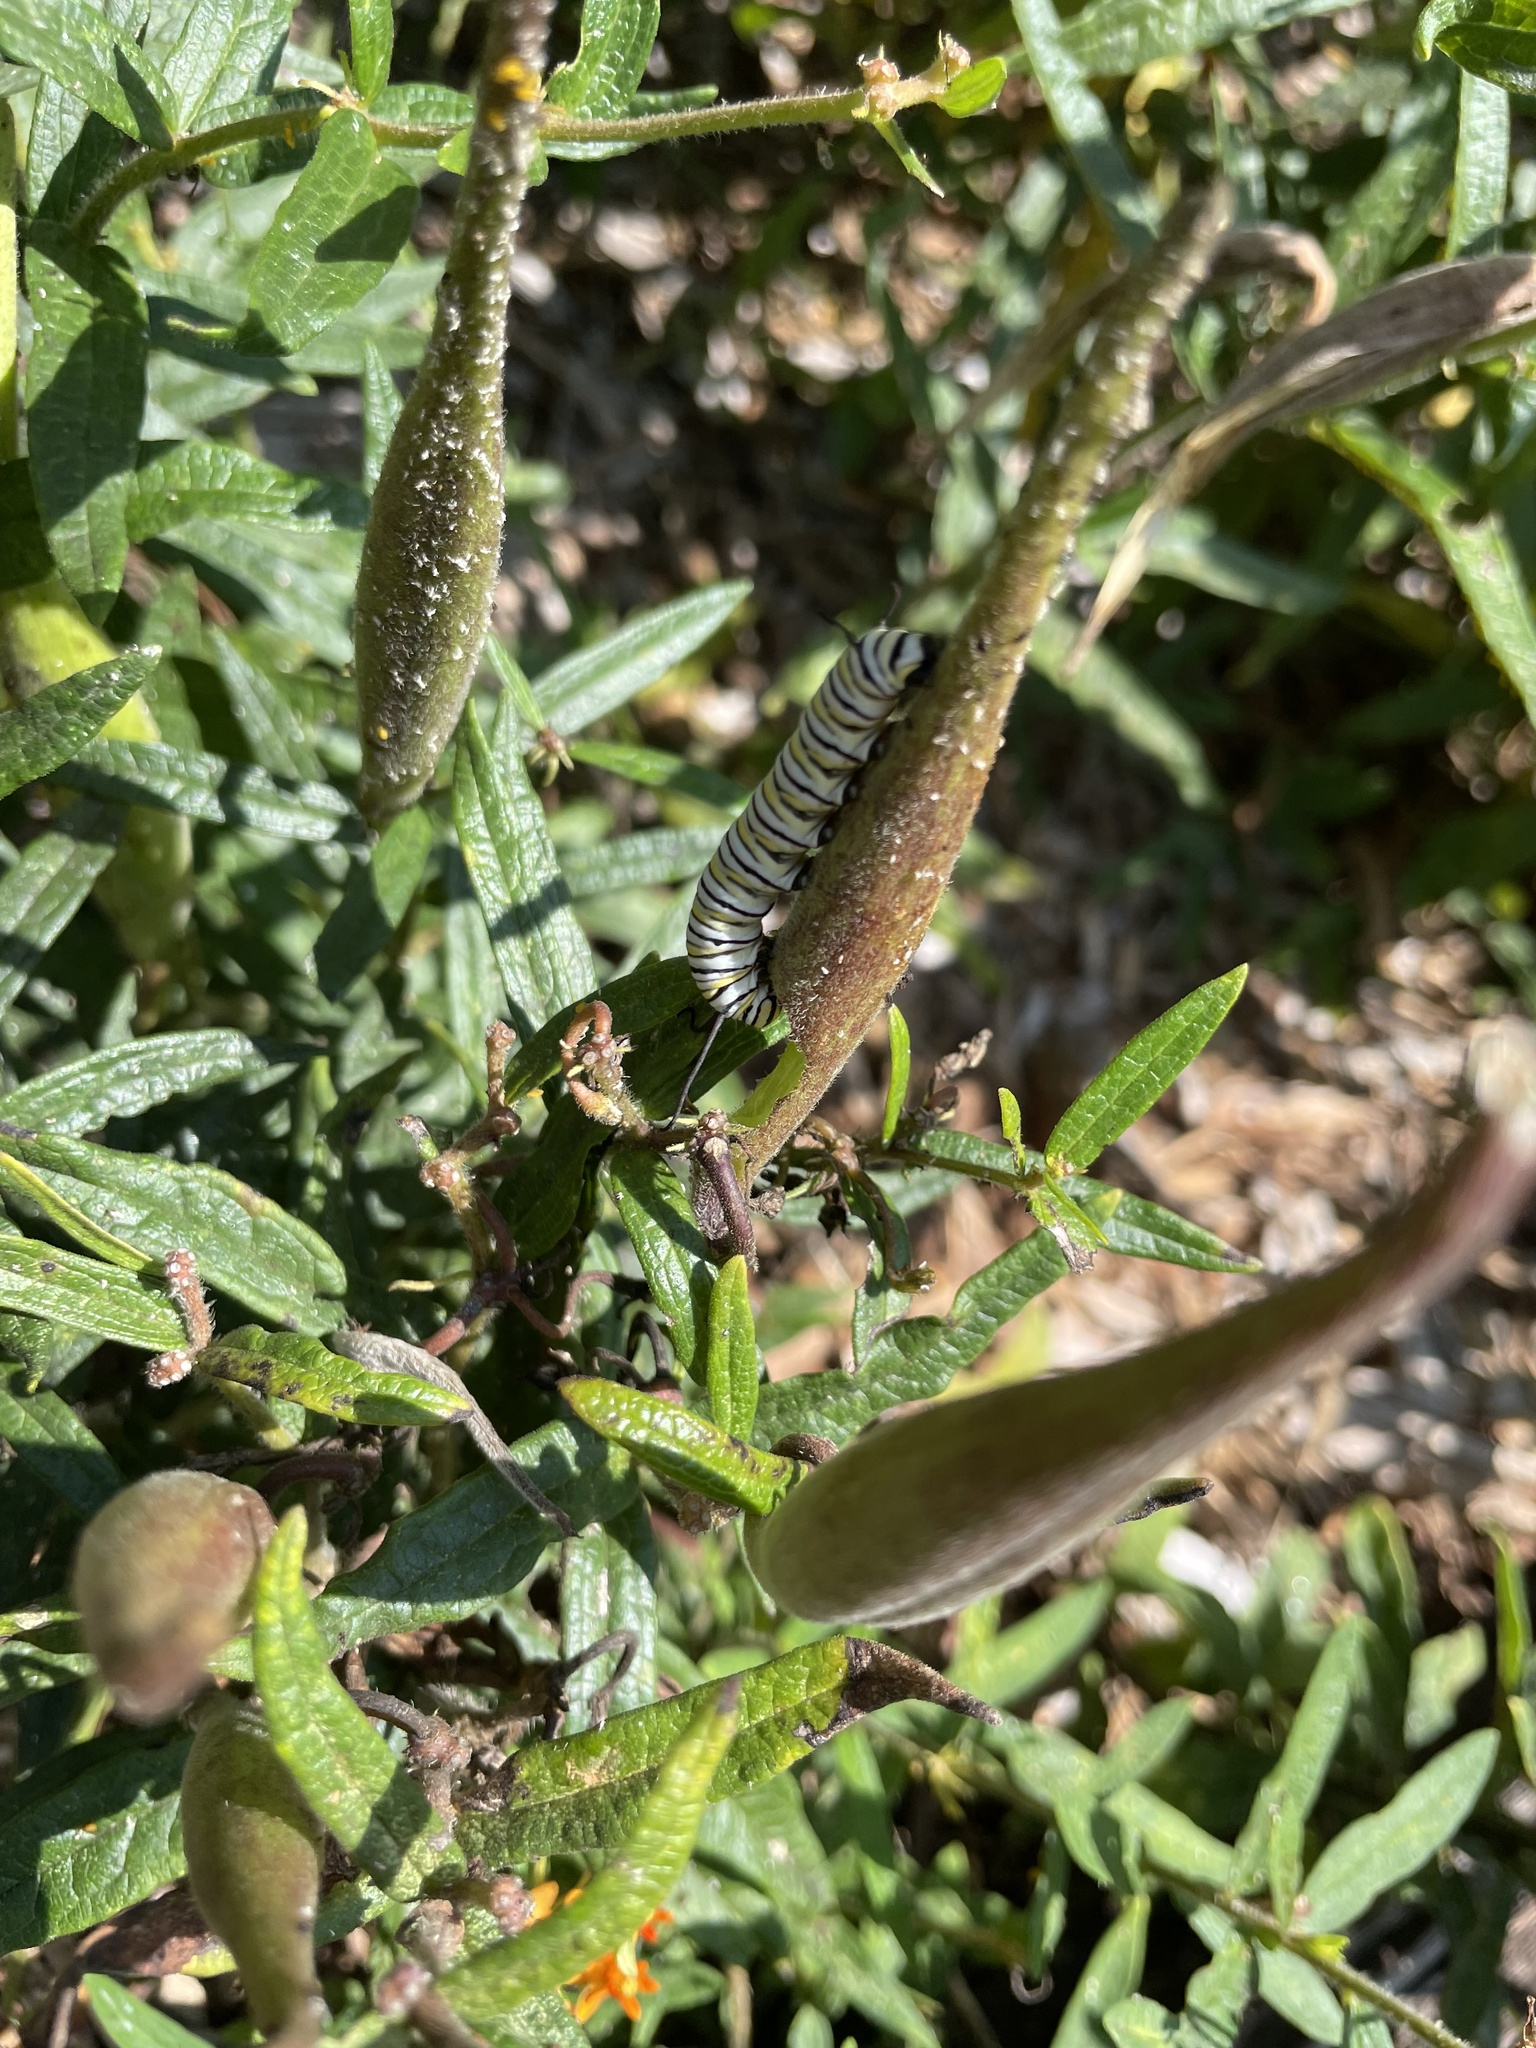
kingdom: Animalia
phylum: Arthropoda
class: Insecta
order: Lepidoptera
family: Nymphalidae
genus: Danaus
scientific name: Danaus plexippus
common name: Monarch
